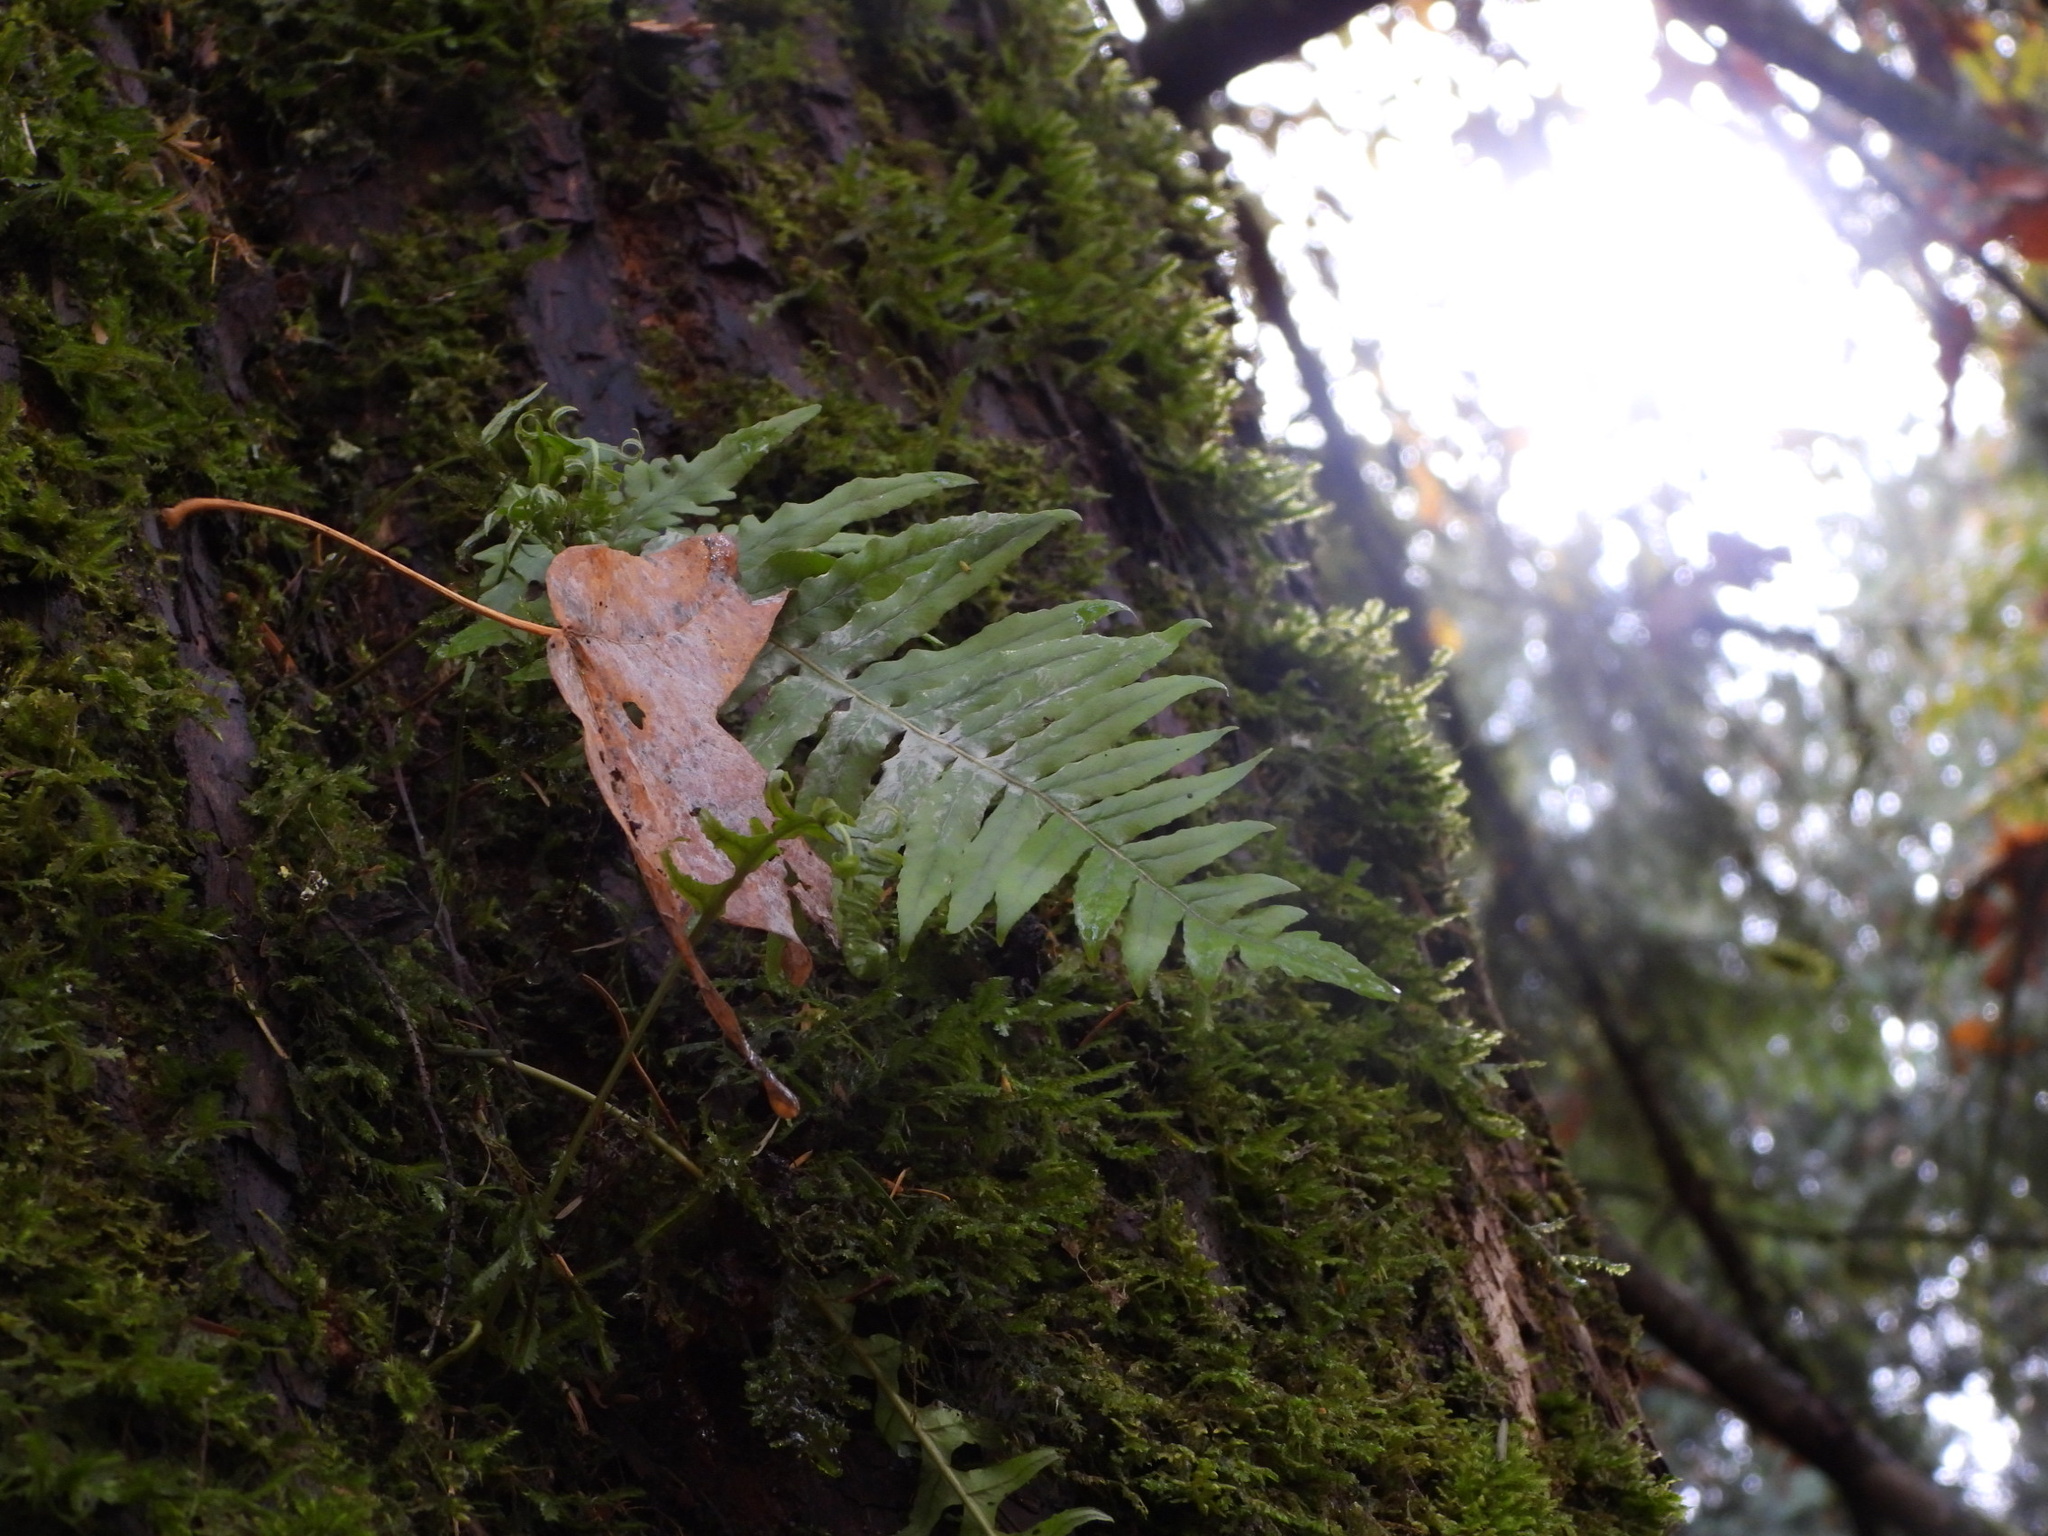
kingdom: Plantae
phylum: Tracheophyta
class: Polypodiopsida
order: Polypodiales
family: Polypodiaceae
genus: Polypodium
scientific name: Polypodium glycyrrhiza
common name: Licorice fern
